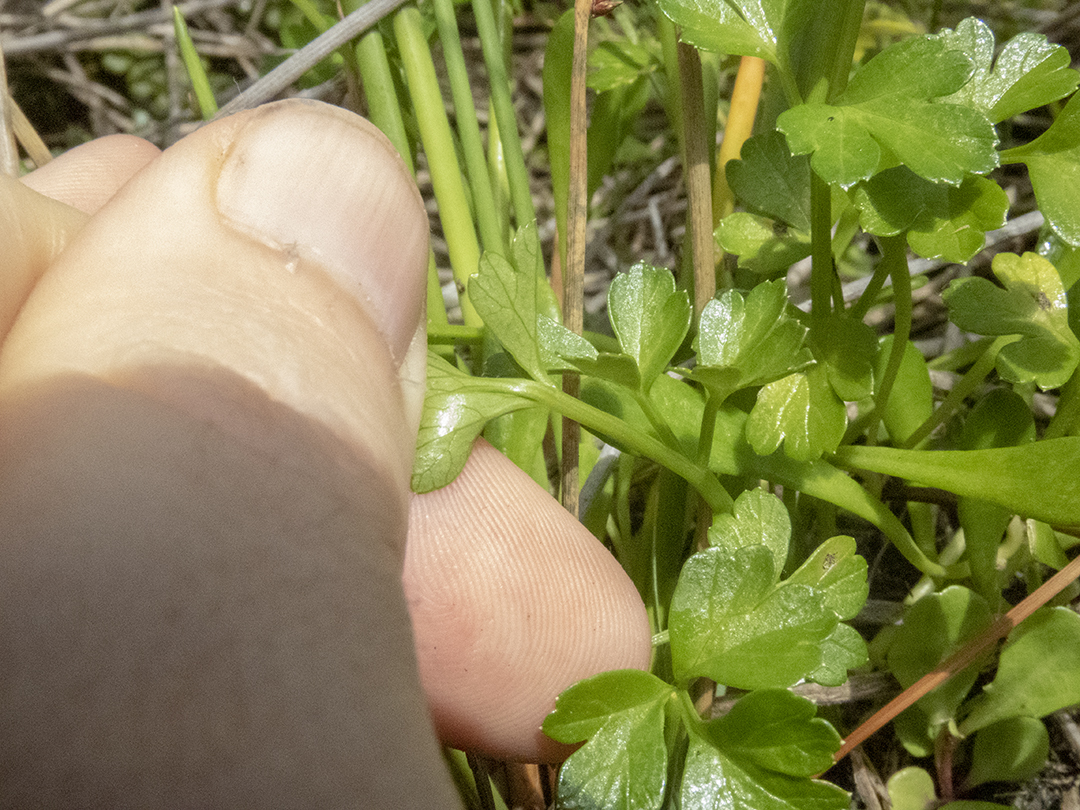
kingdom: Plantae
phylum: Tracheophyta
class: Magnoliopsida
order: Apiales
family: Apiaceae
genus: Apium
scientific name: Apium prostratum
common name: Prostrate marshwort
